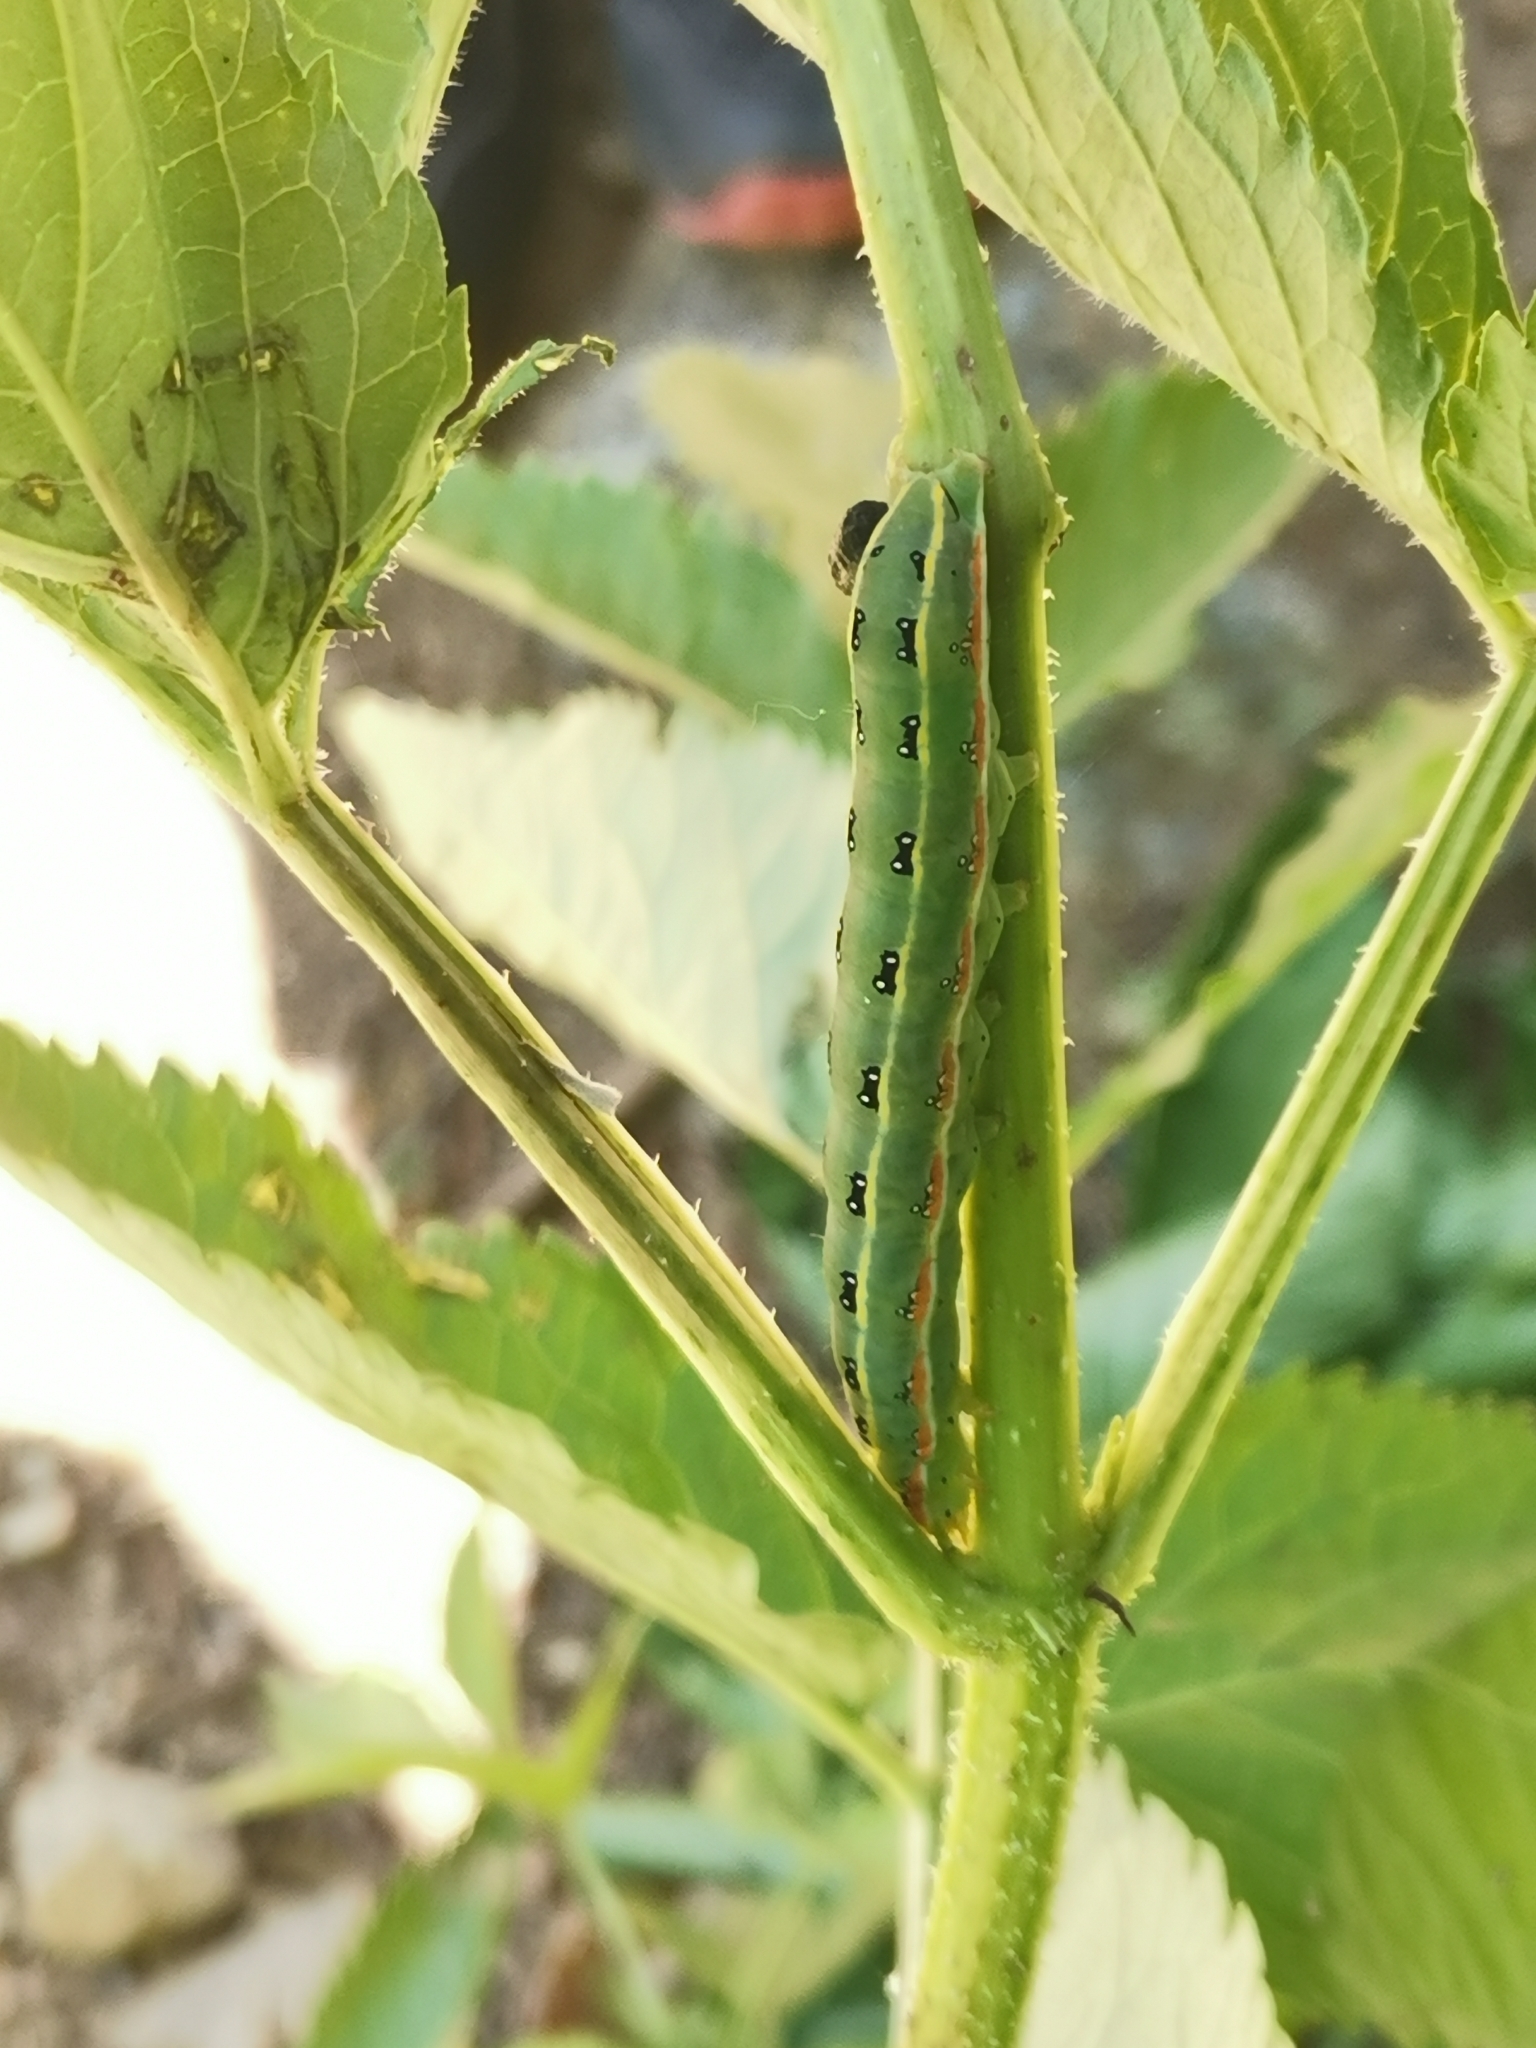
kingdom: Animalia
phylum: Arthropoda
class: Insecta
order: Lepidoptera
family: Noctuidae
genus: Xylena
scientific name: Xylena exsoleta
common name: Sword-grass
